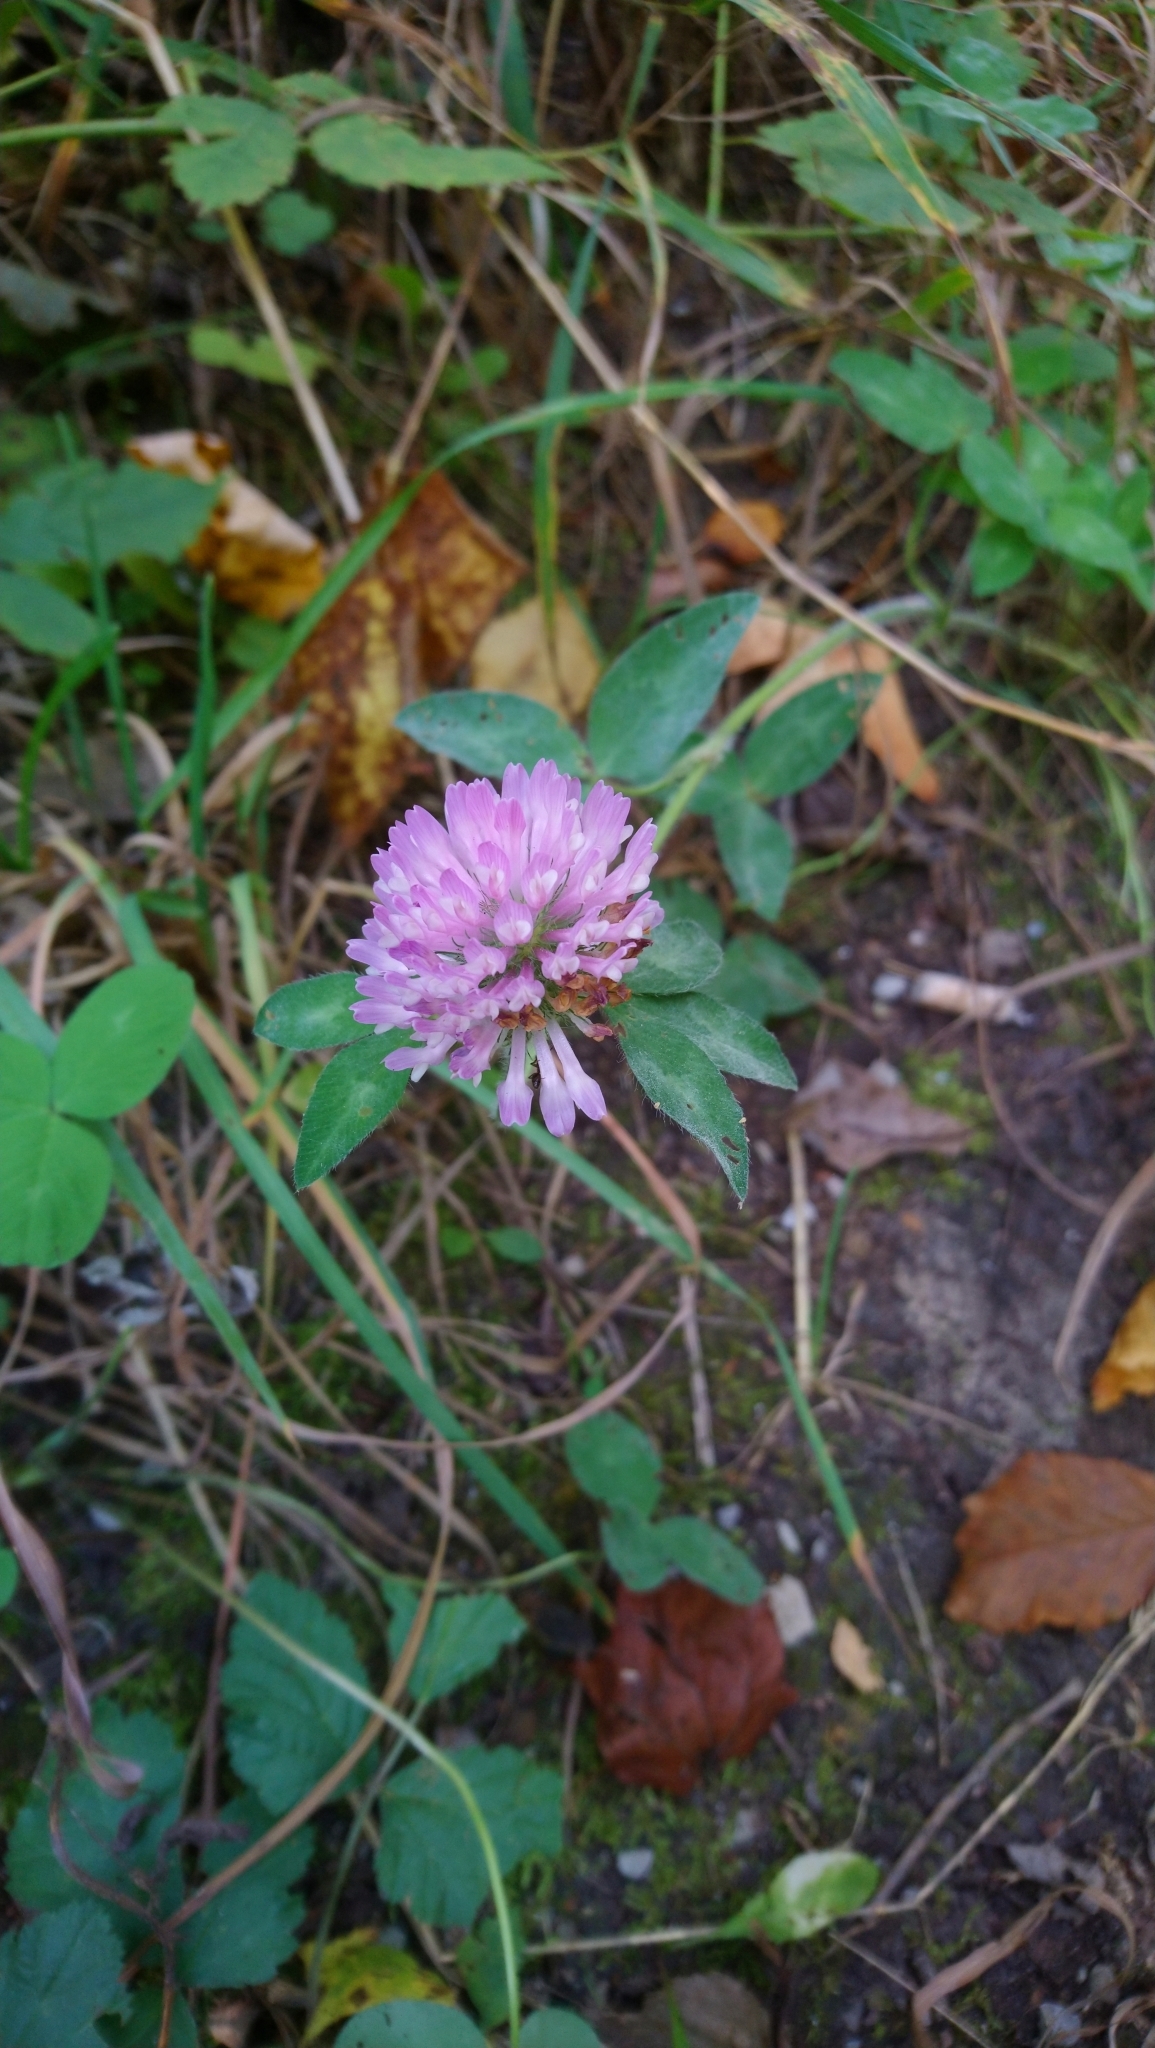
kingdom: Plantae
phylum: Tracheophyta
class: Magnoliopsida
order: Fabales
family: Fabaceae
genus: Trifolium
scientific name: Trifolium pratense
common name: Red clover
